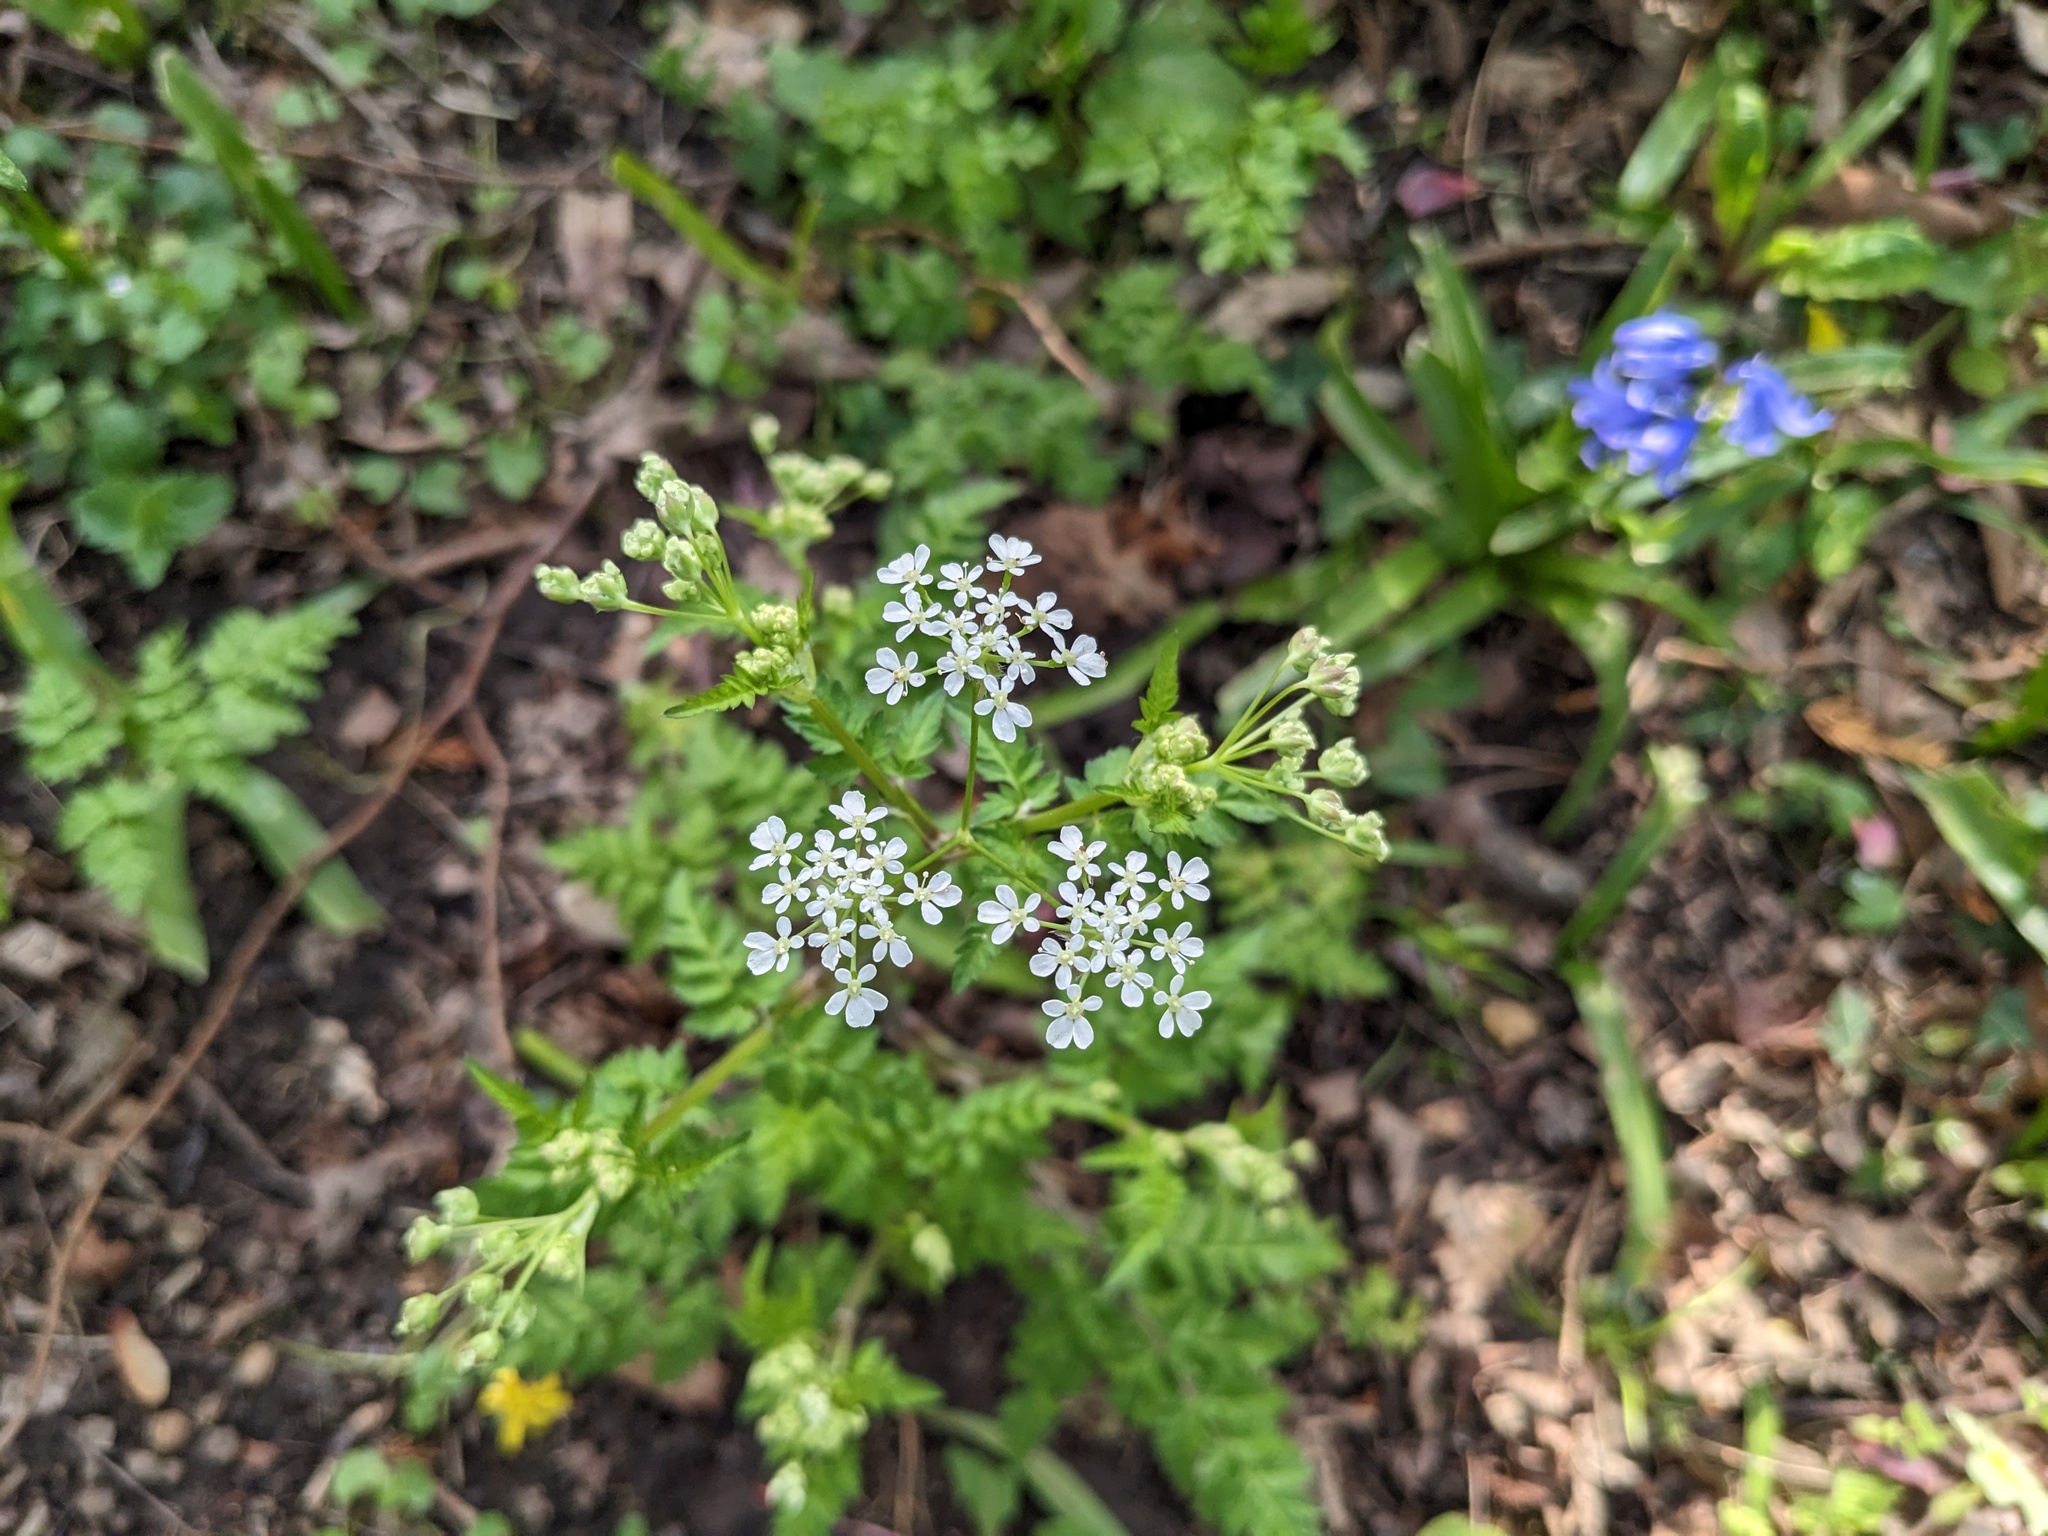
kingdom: Plantae
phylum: Tracheophyta
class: Magnoliopsida
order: Apiales
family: Apiaceae
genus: Anthriscus
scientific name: Anthriscus sylvestris
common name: Cow parsley
